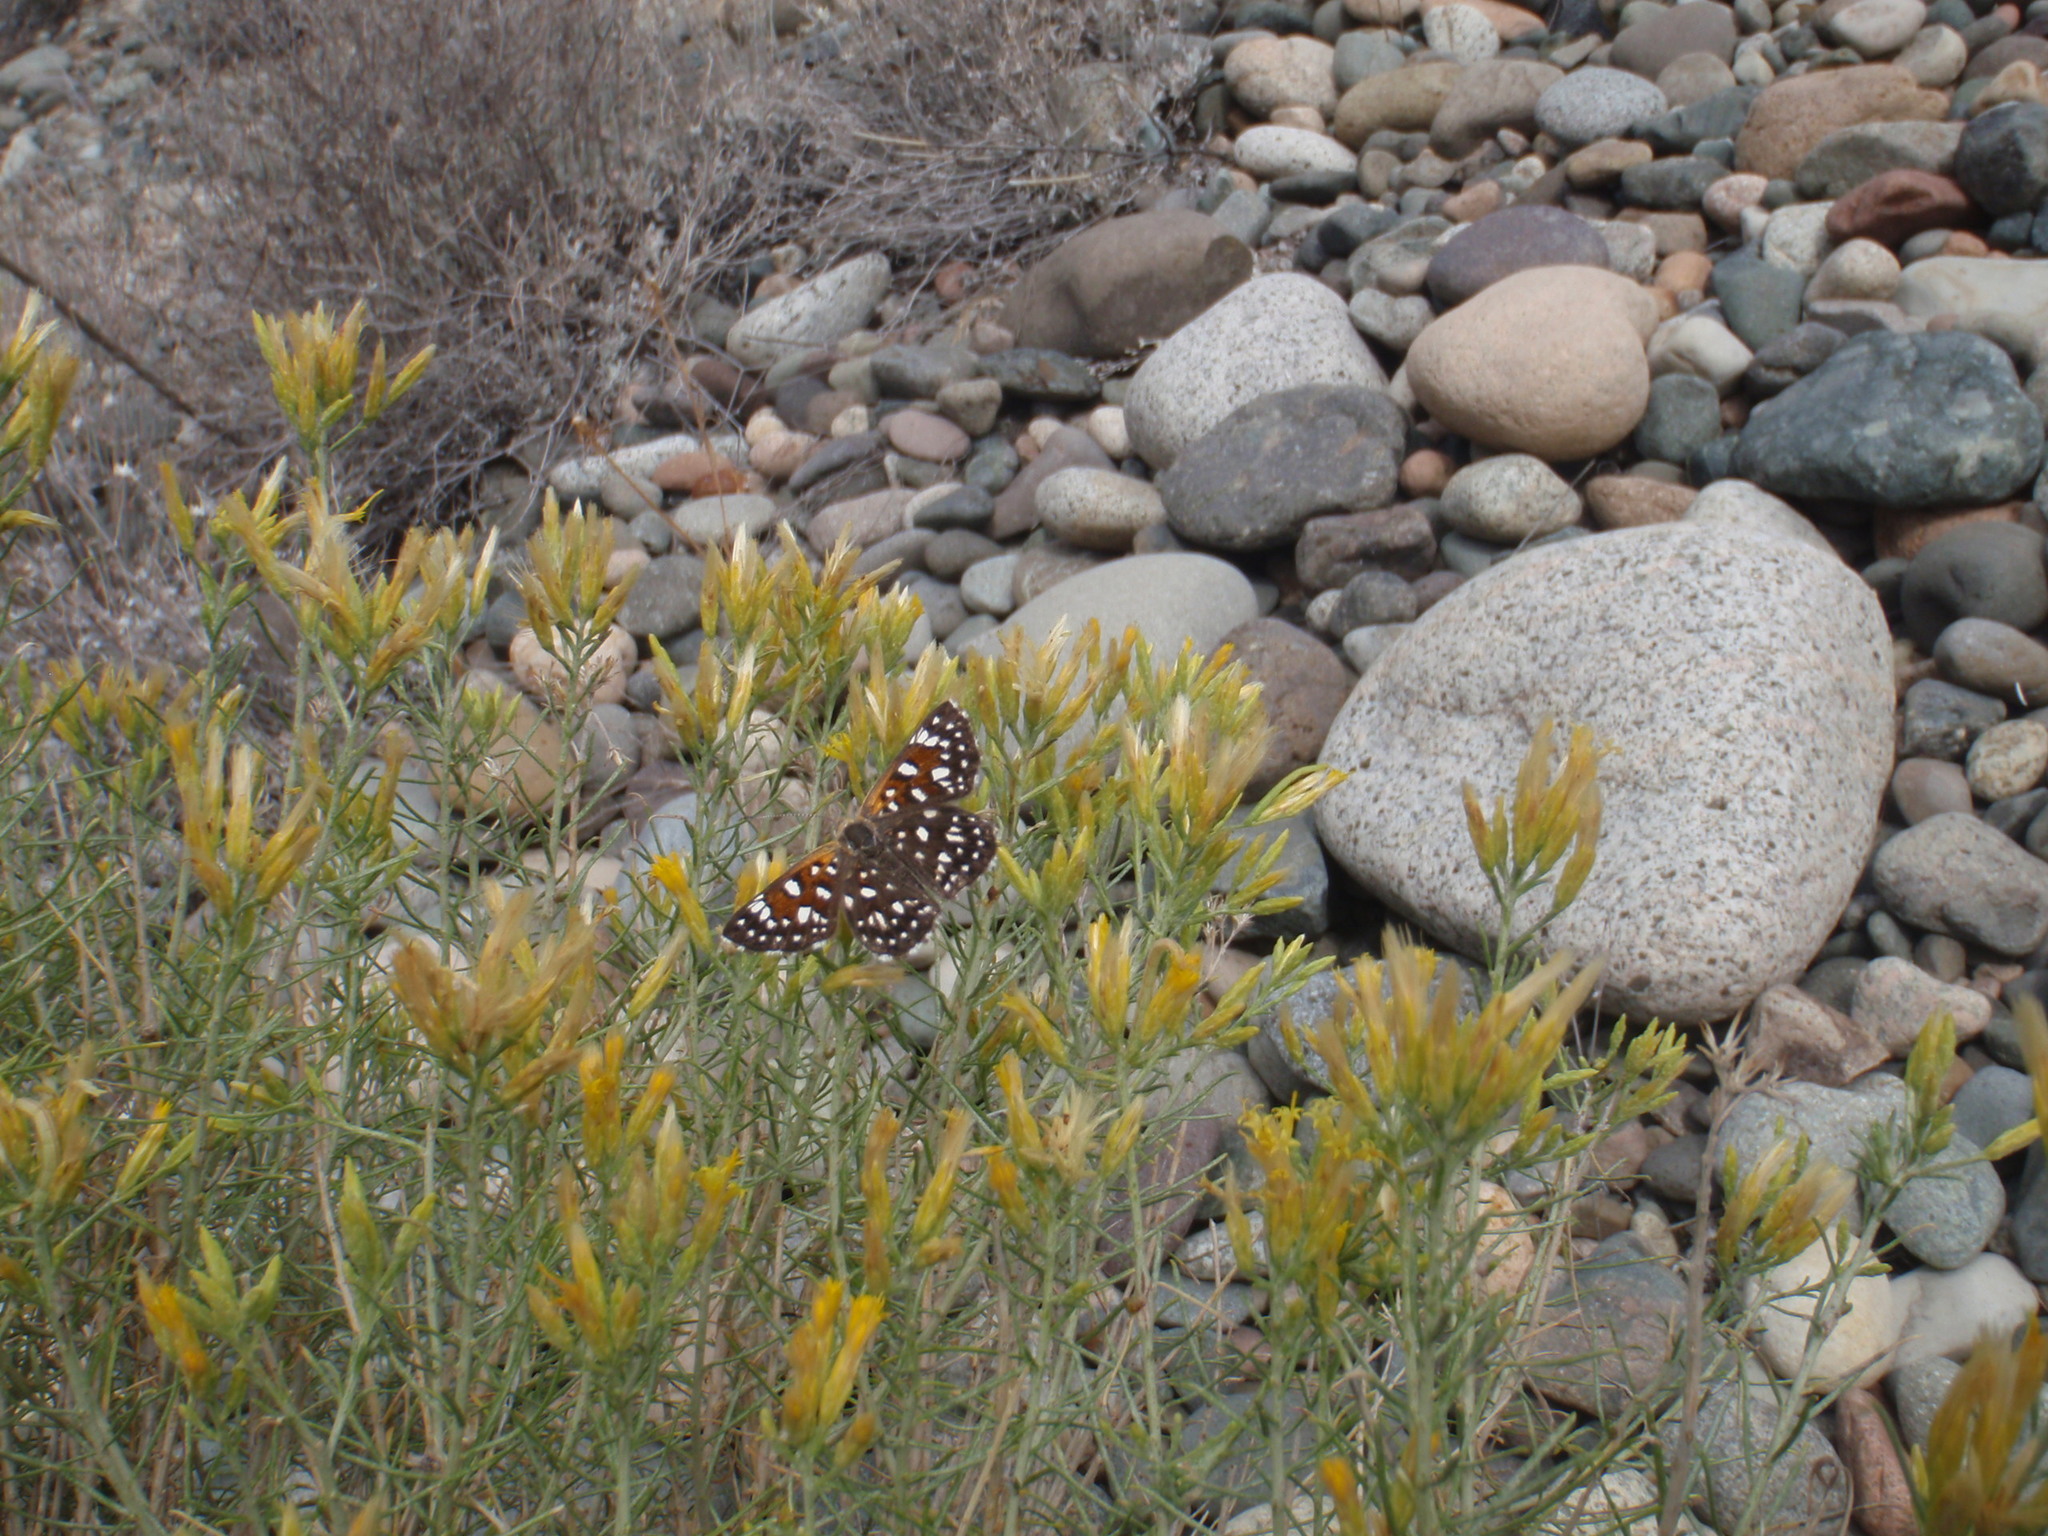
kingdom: Animalia
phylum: Arthropoda
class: Insecta
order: Lepidoptera
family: Riodinidae
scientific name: Riodinidae
